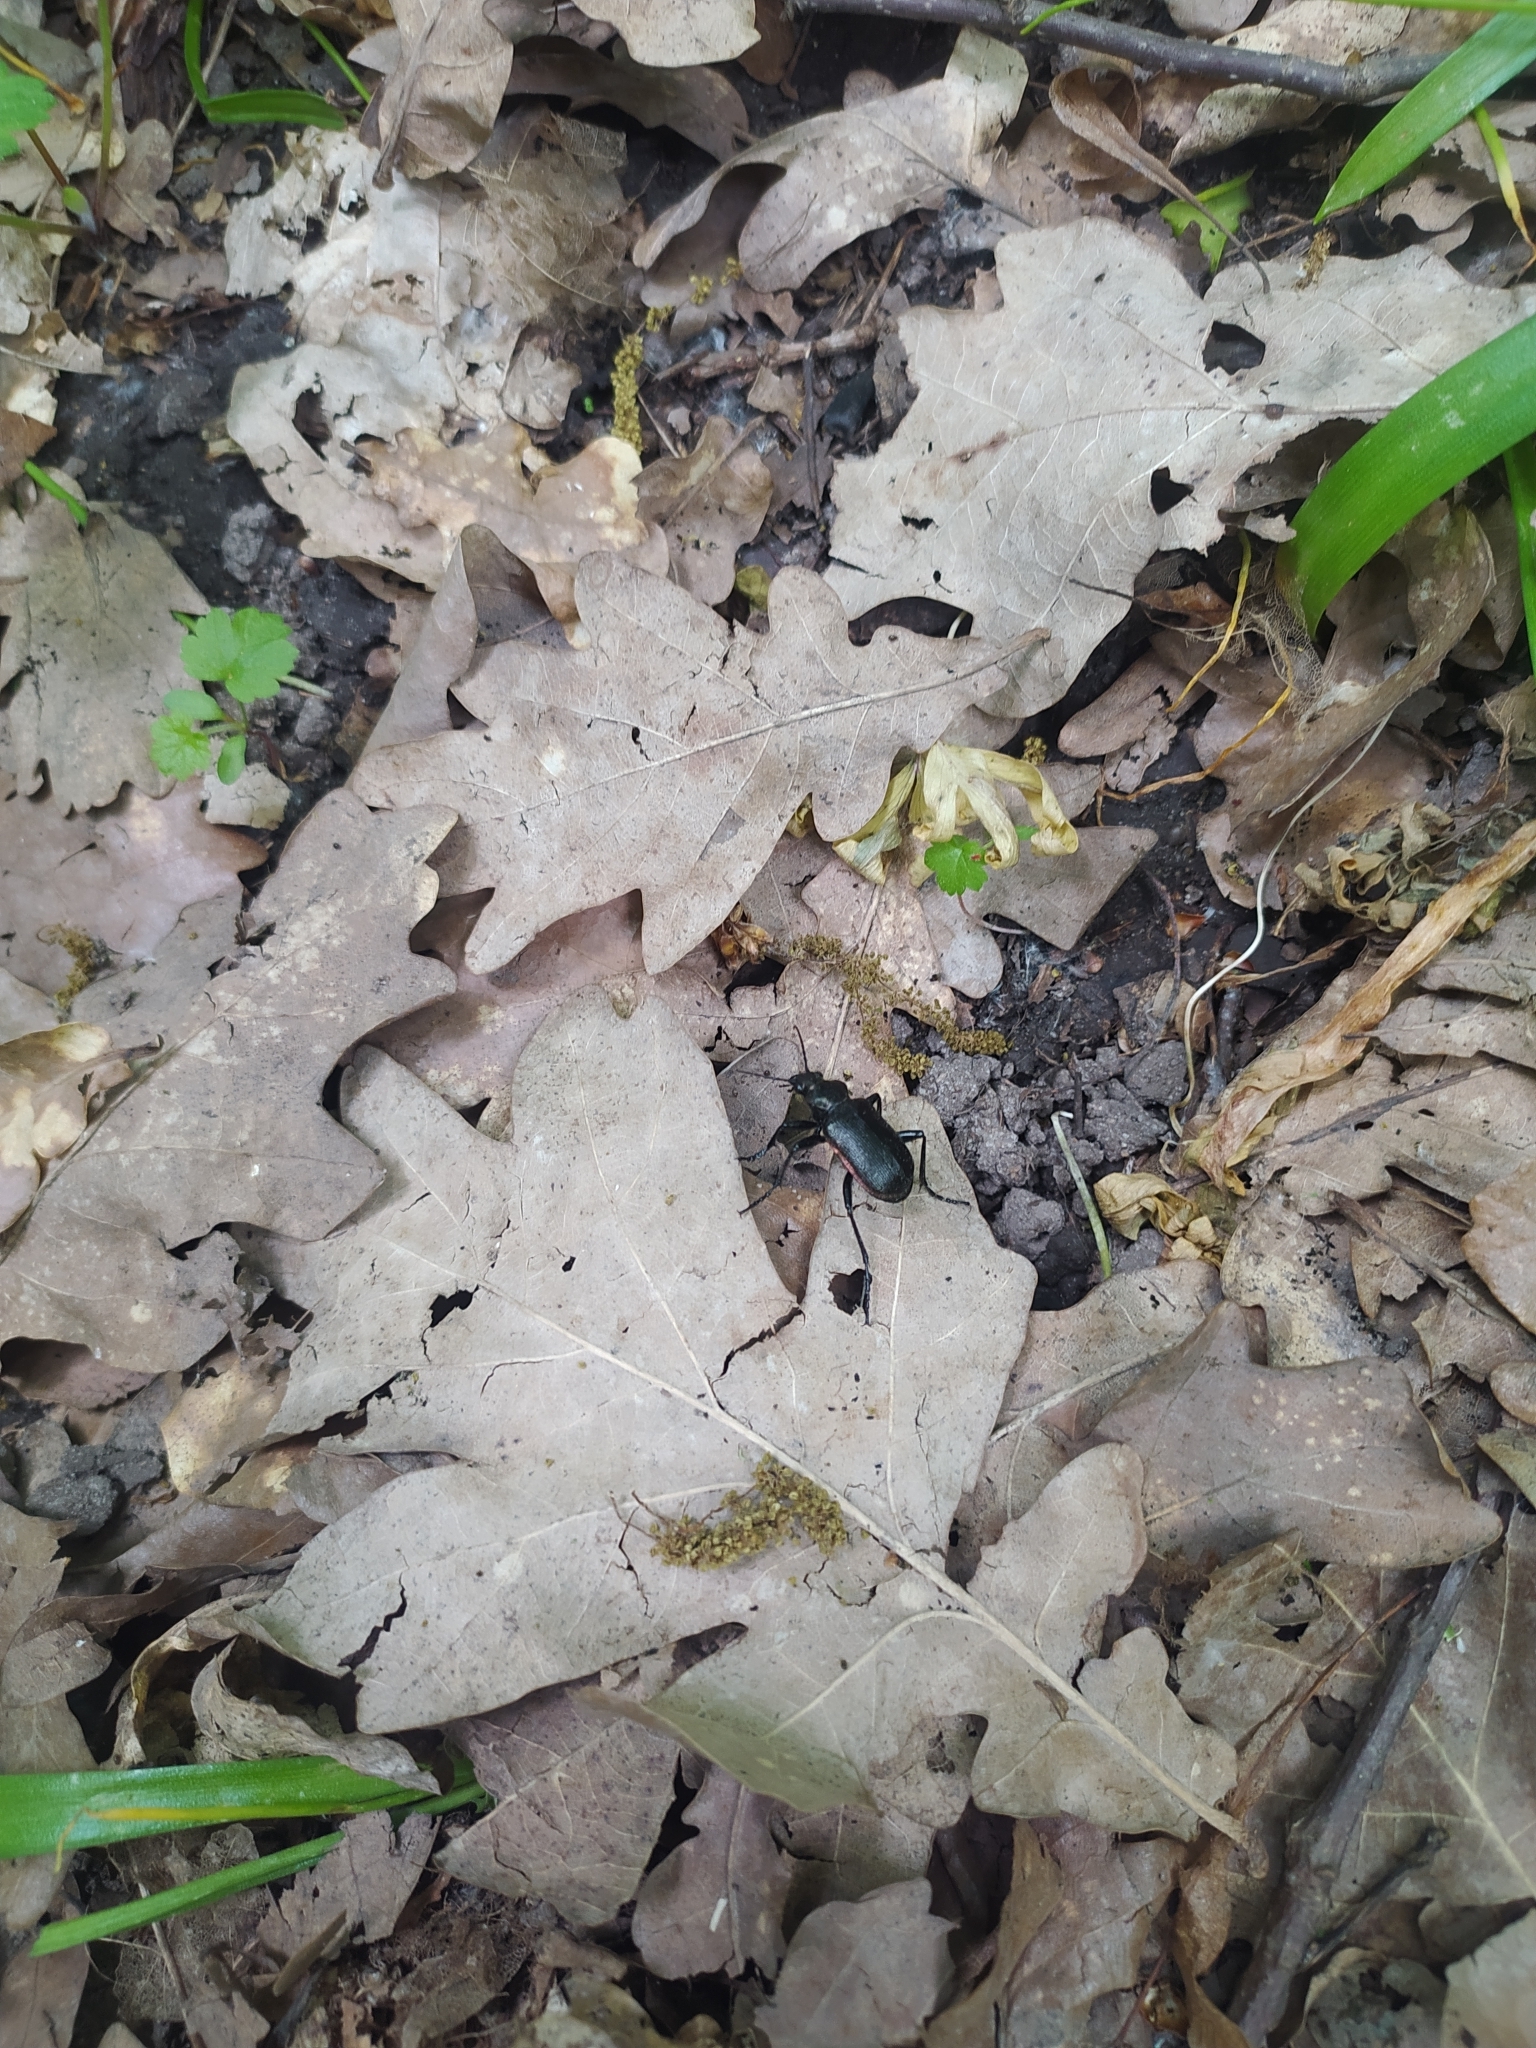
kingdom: Animalia
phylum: Arthropoda
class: Insecta
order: Coleoptera
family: Carabidae
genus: Calosoma
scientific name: Calosoma inquisitor
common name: Caterpillar-hunter
